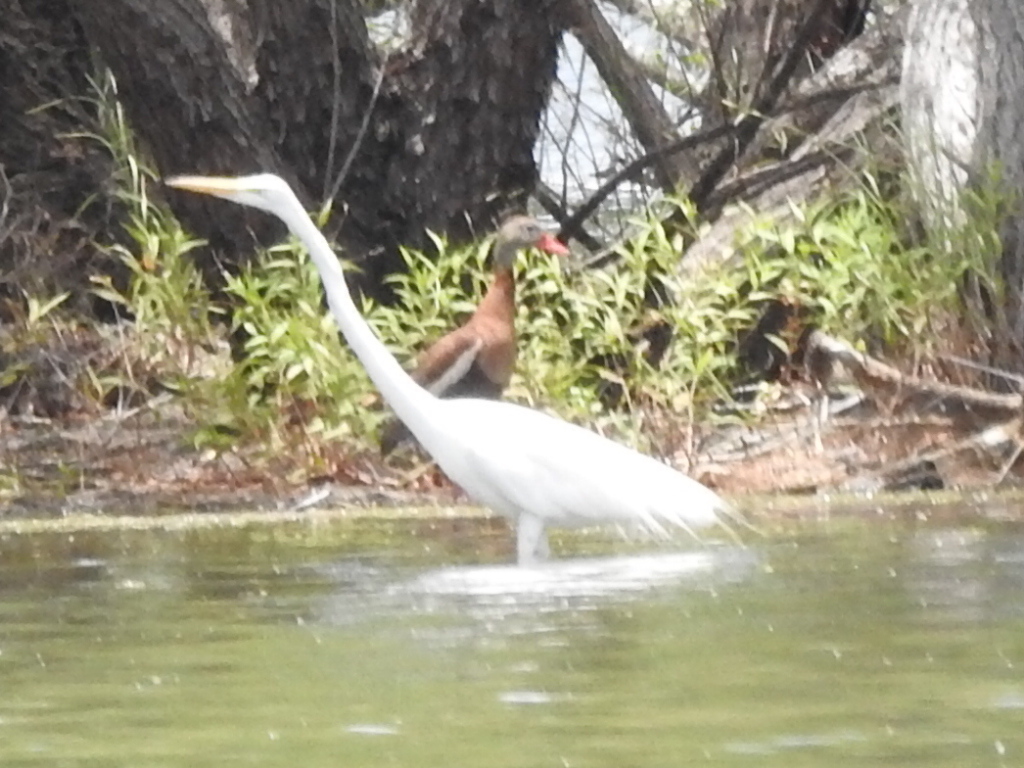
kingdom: Animalia
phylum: Chordata
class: Aves
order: Pelecaniformes
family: Ardeidae
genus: Ardea
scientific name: Ardea alba
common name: Great egret
